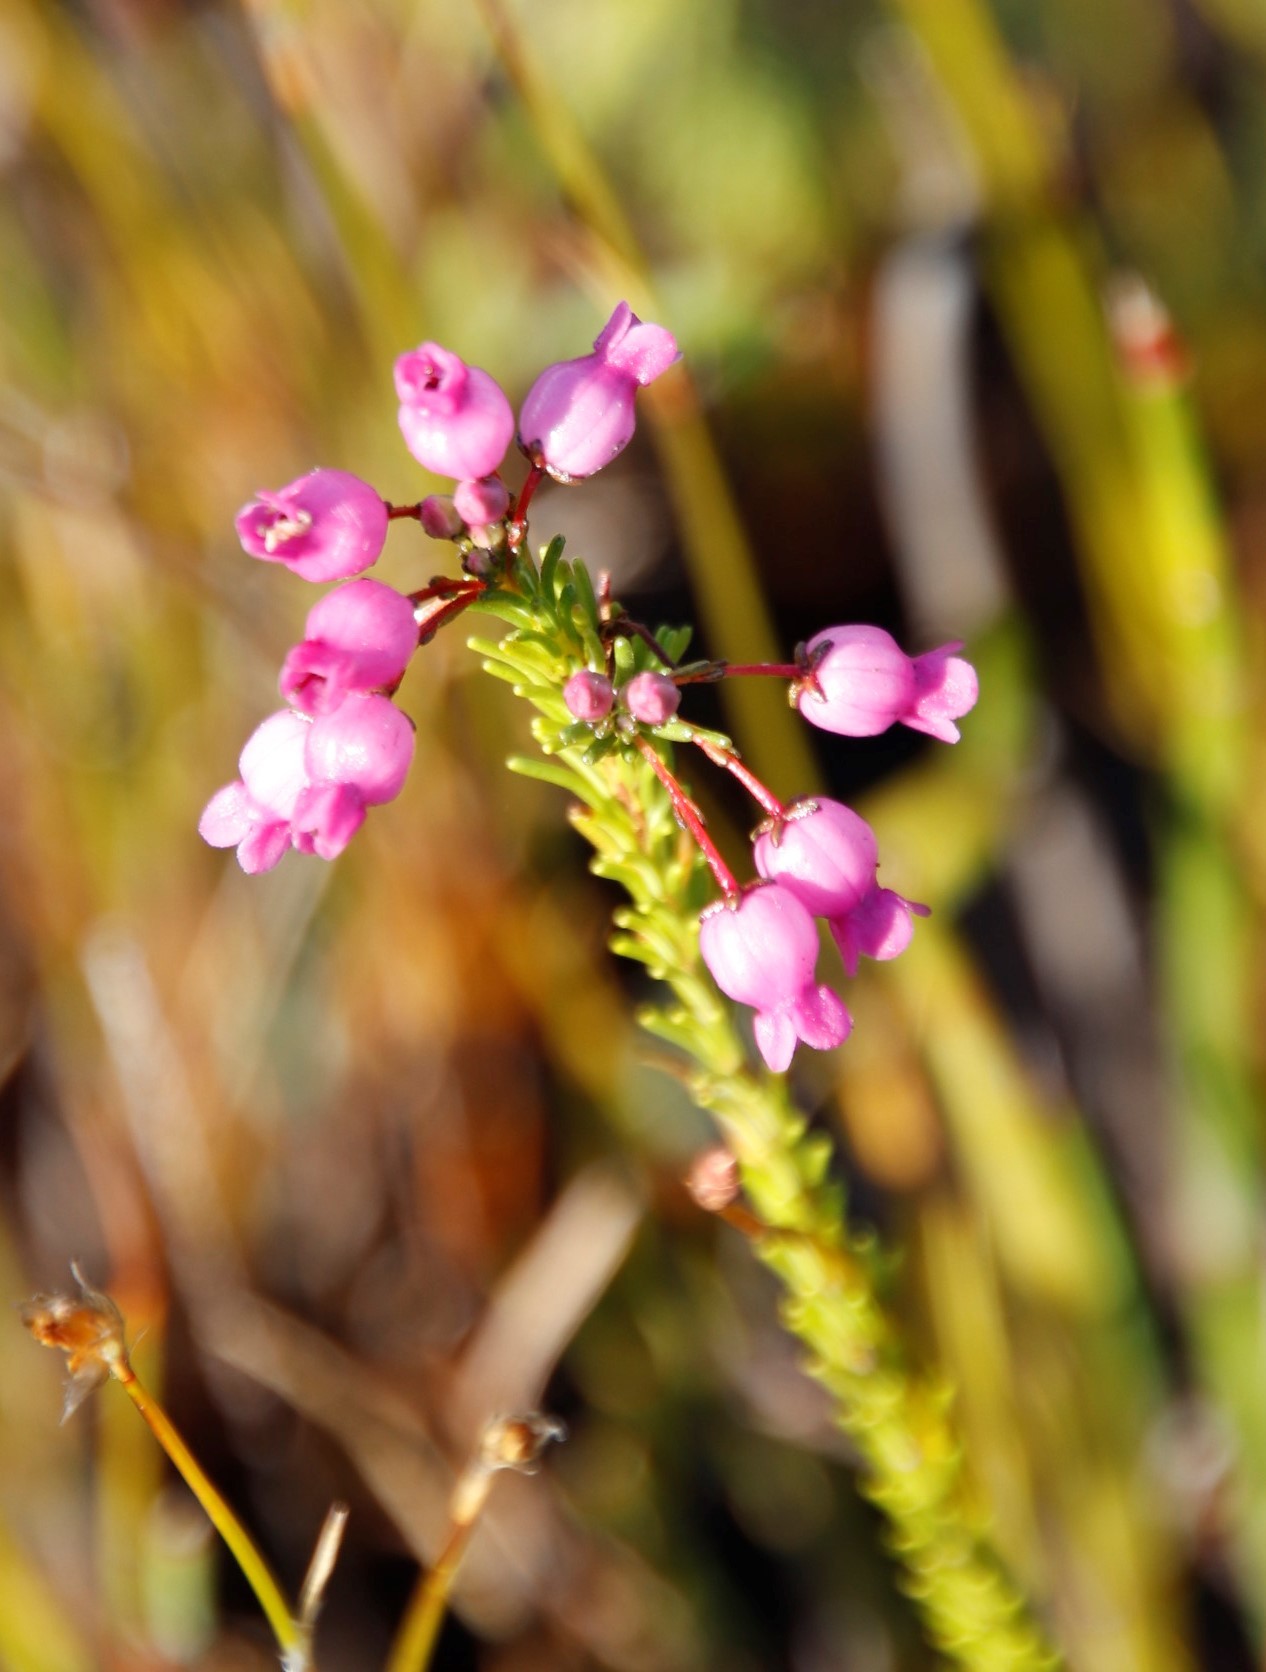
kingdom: Plantae
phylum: Tracheophyta
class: Magnoliopsida
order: Ericales
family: Ericaceae
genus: Erica
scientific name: Erica obliqua
